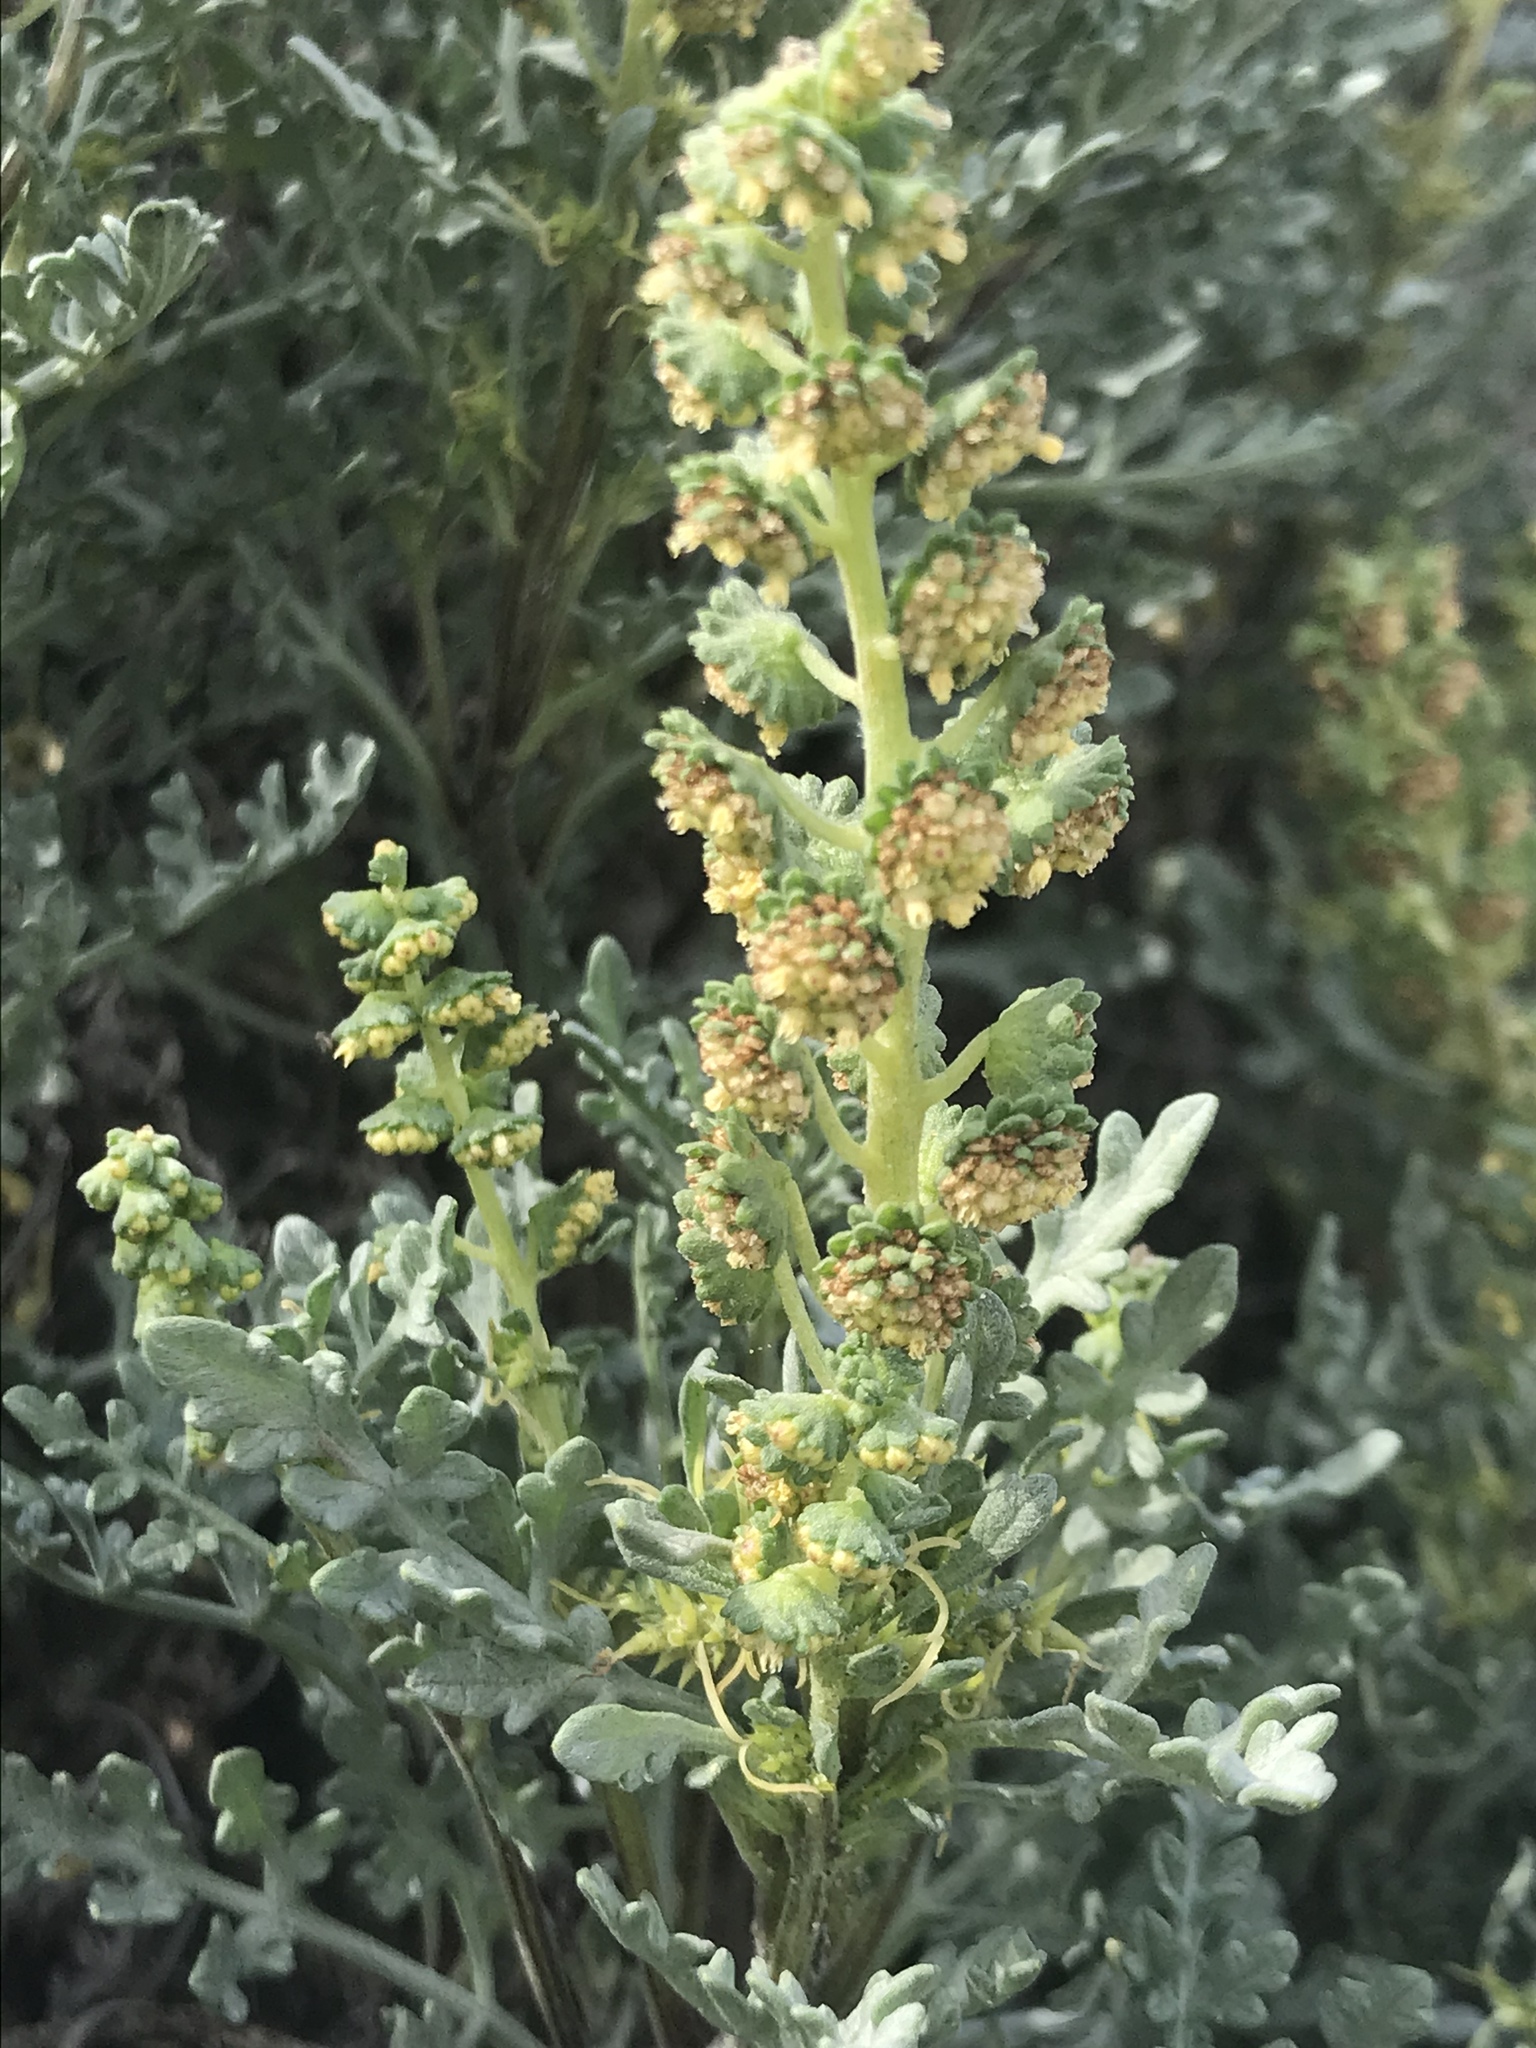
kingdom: Plantae
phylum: Tracheophyta
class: Magnoliopsida
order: Asterales
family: Asteraceae
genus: Ambrosia
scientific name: Ambrosia chamissonis
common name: Beachbur
